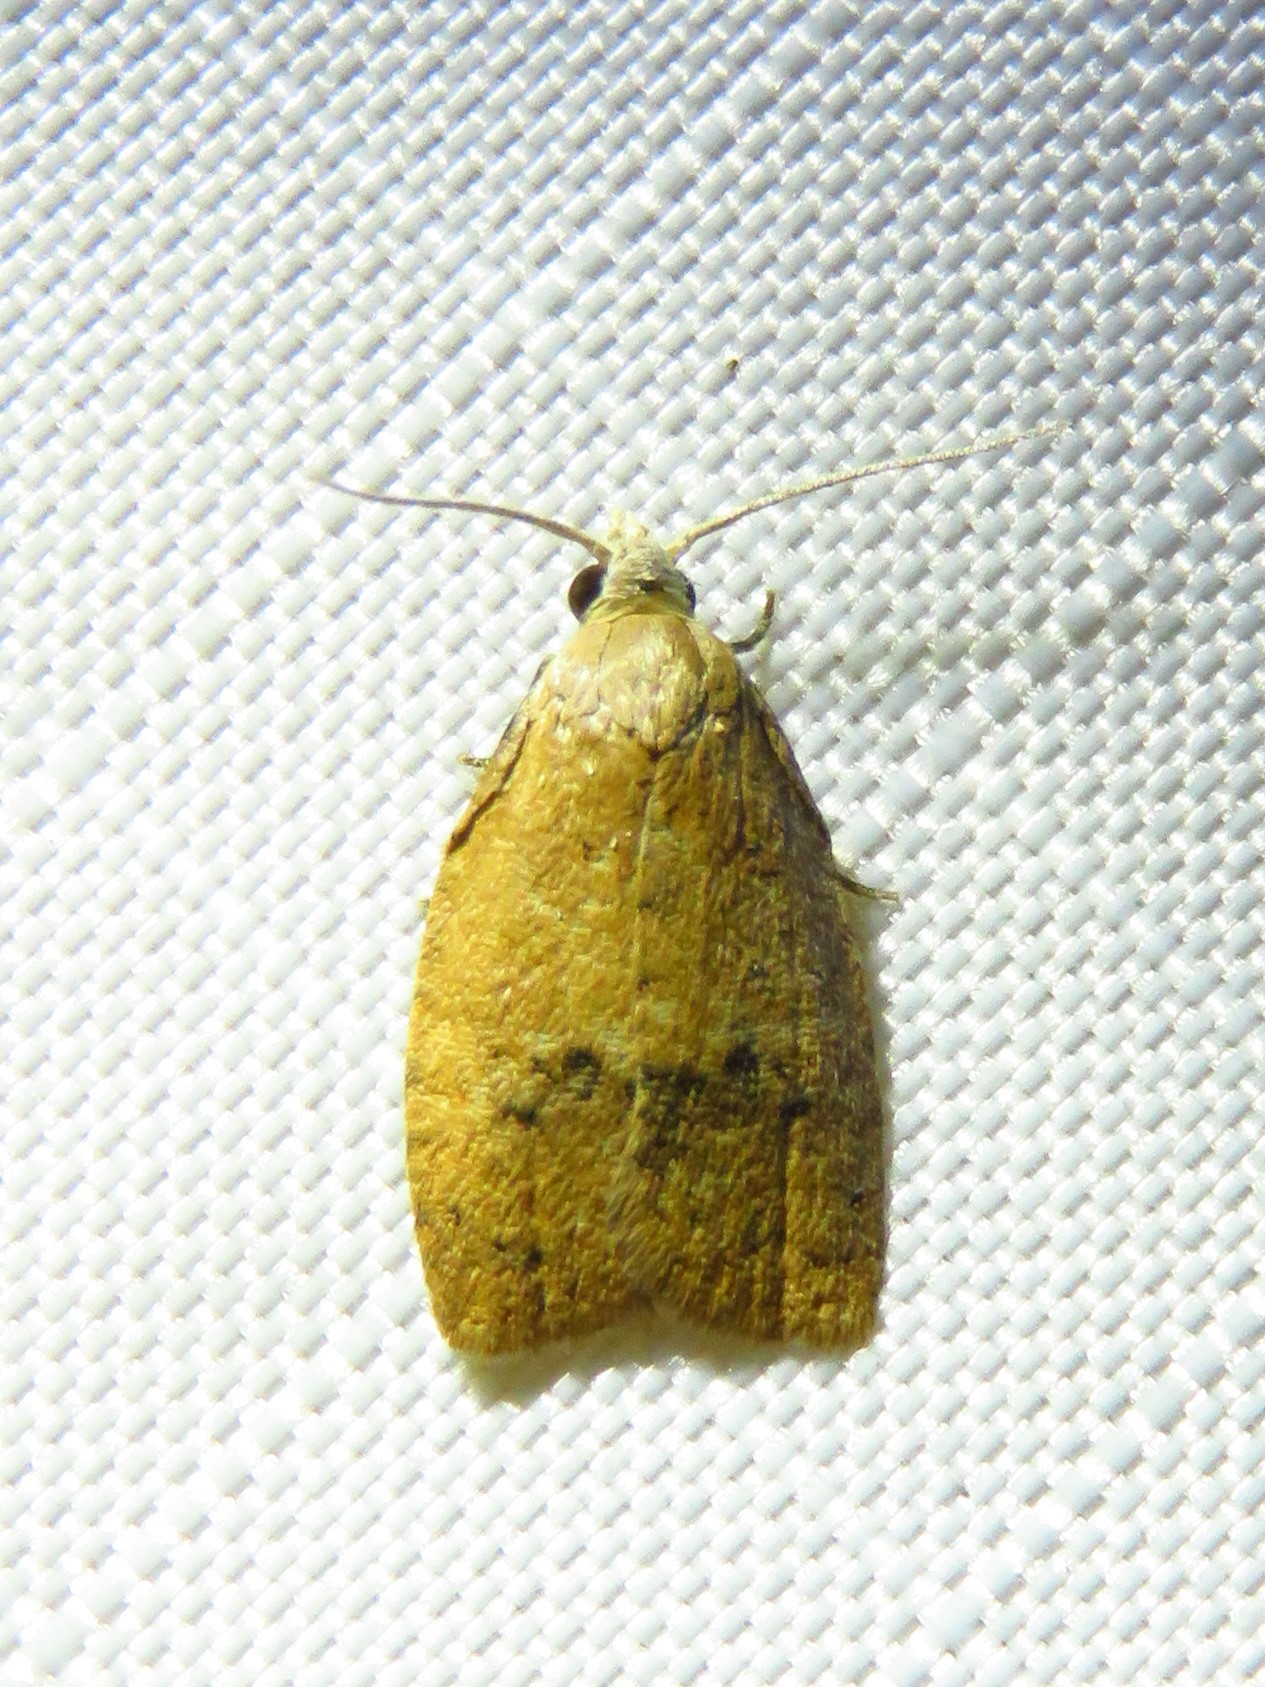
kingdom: Animalia
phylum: Arthropoda
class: Insecta
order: Lepidoptera
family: Tortricidae
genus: Sparganothoides
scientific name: Sparganothoides lentiginosana
